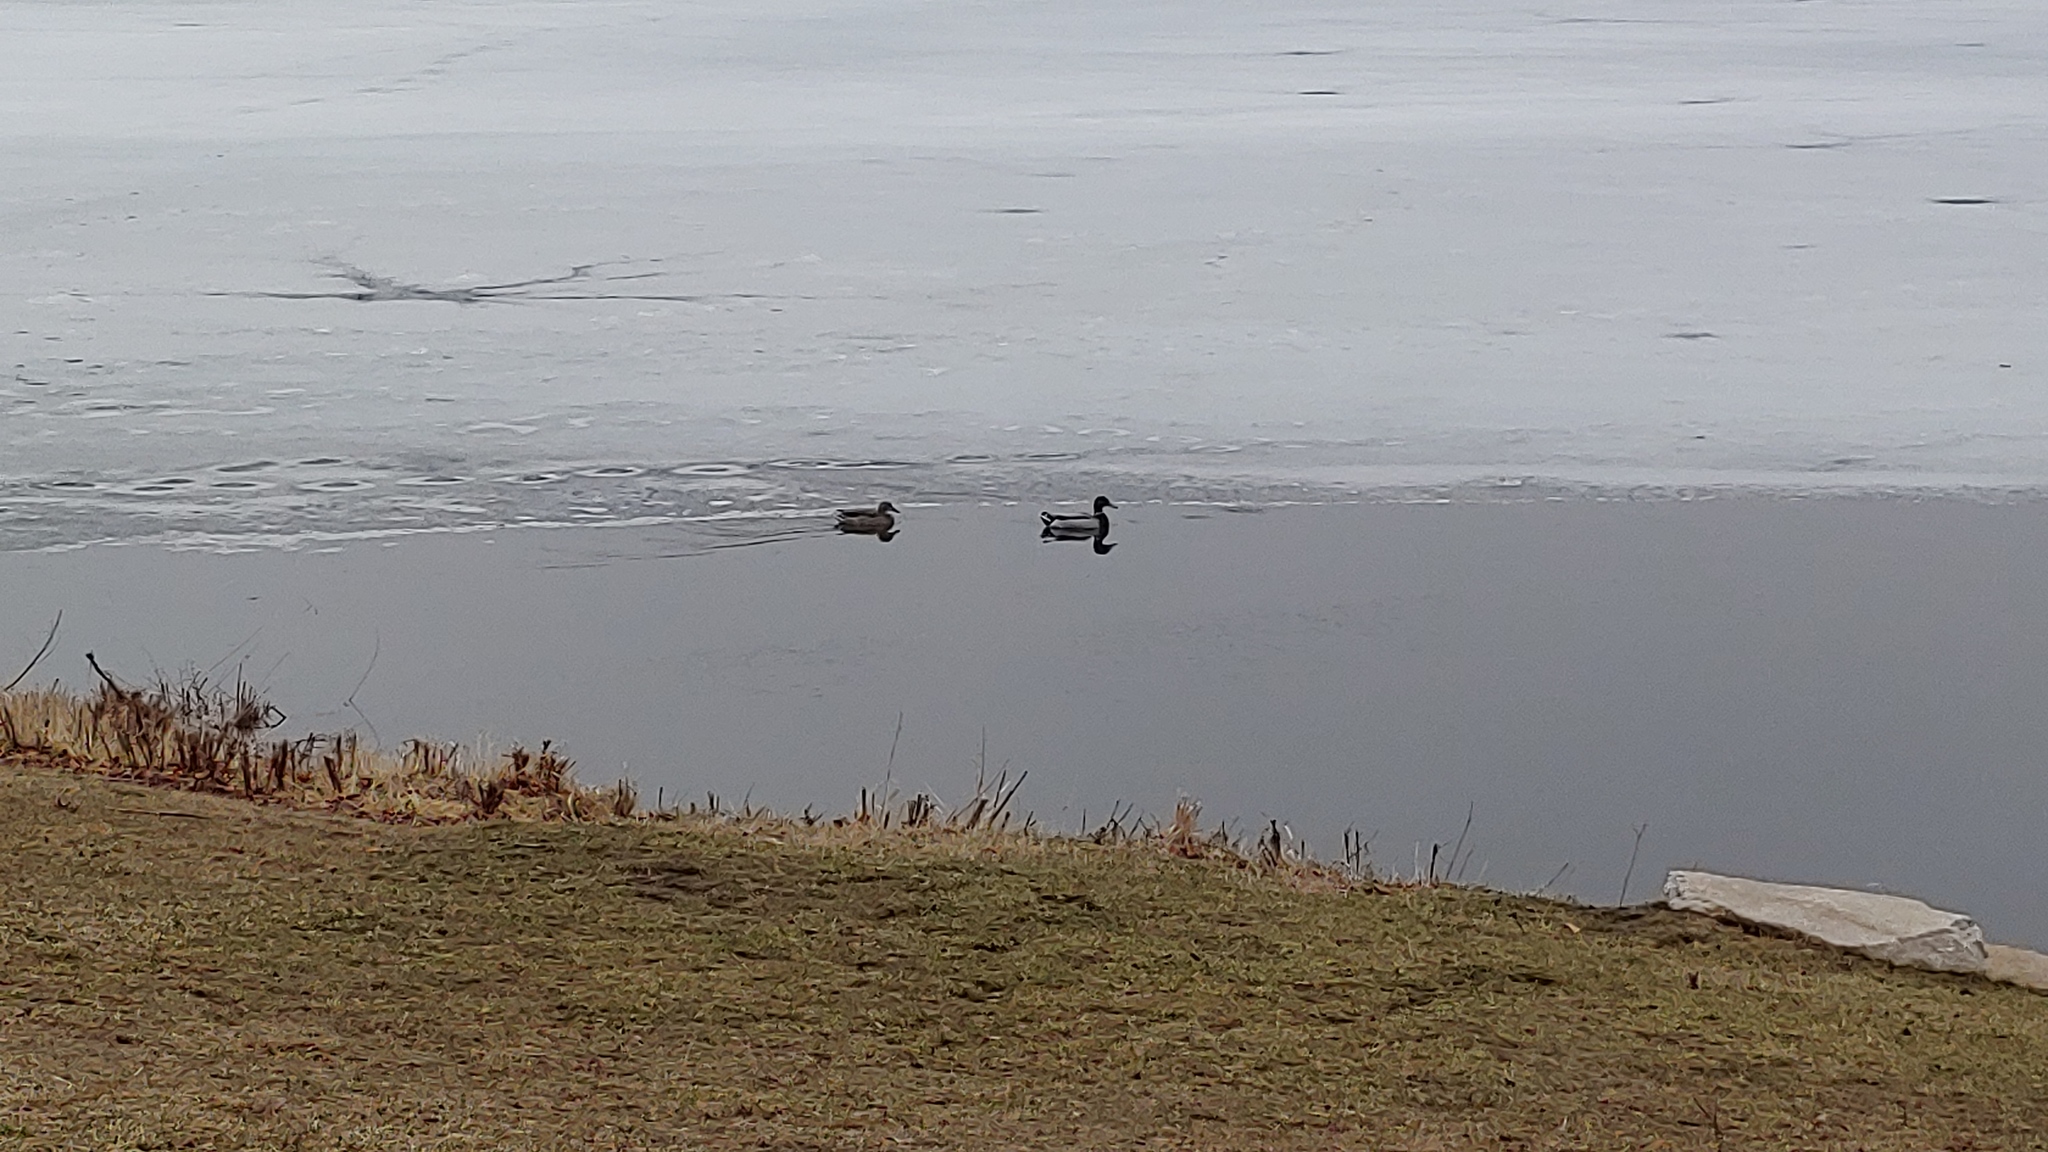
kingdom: Animalia
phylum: Chordata
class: Aves
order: Anseriformes
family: Anatidae
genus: Anas
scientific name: Anas platyrhynchos
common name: Mallard
